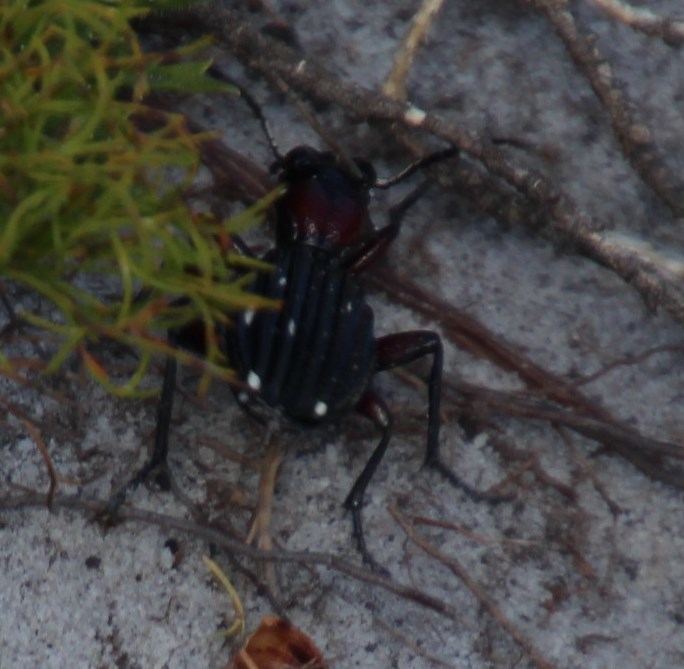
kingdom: Animalia
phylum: Arthropoda
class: Insecta
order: Coleoptera
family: Carabidae
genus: Anthia
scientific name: Anthia decemguttata
